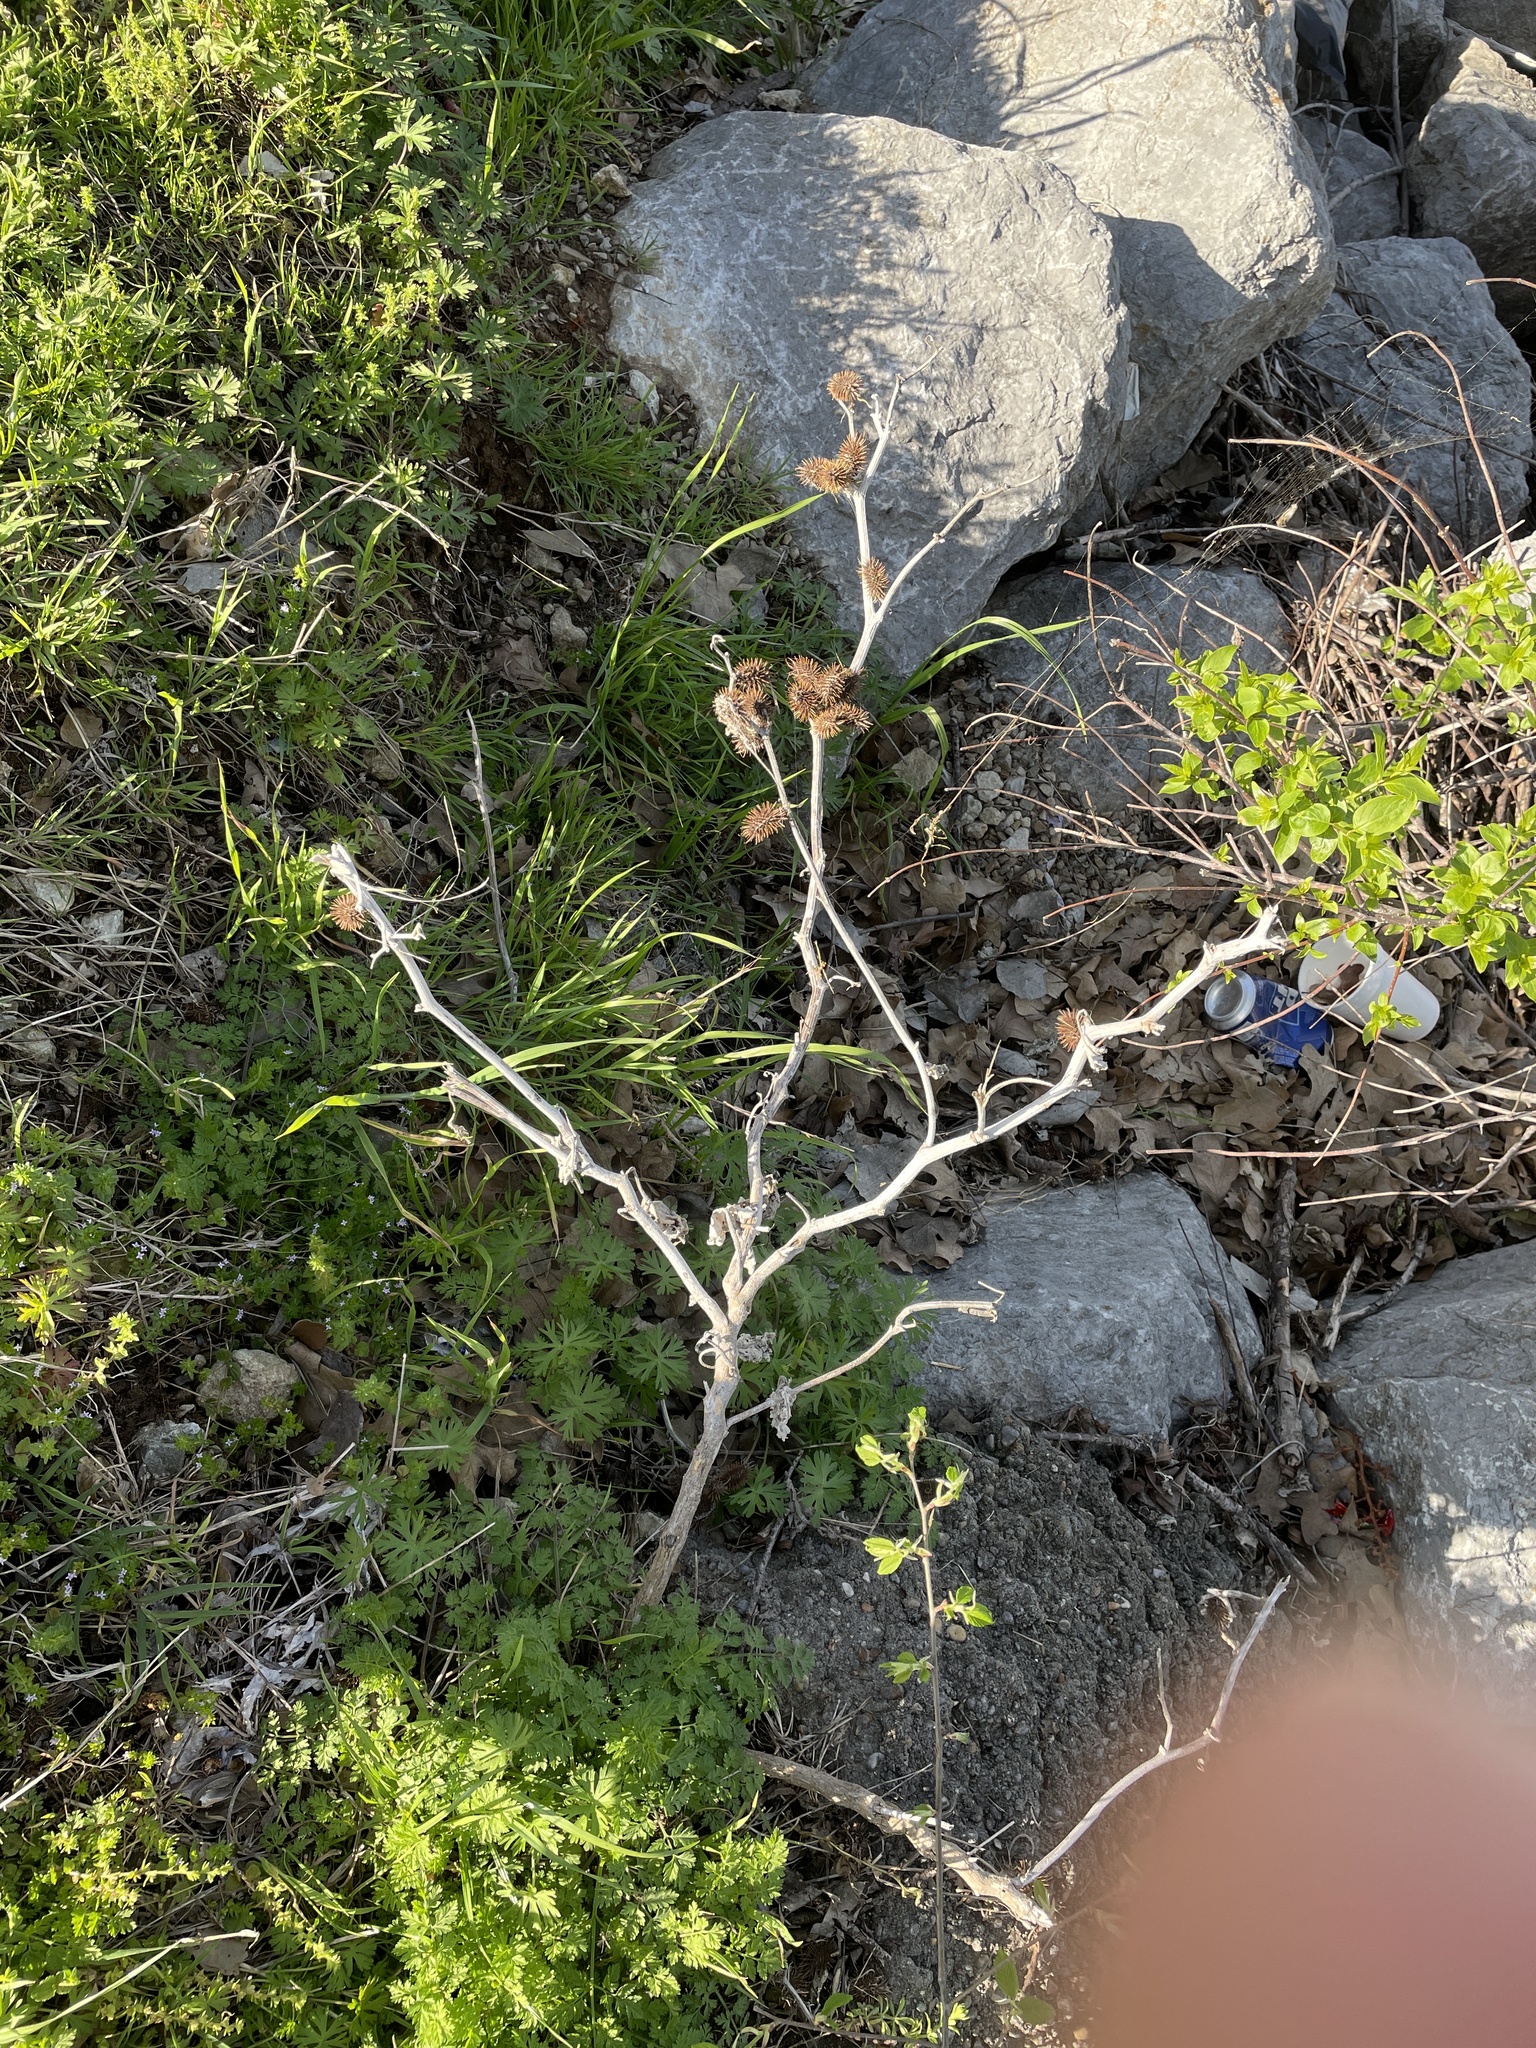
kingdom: Plantae
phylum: Tracheophyta
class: Magnoliopsida
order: Asterales
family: Asteraceae
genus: Xanthium
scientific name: Xanthium strumarium
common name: Rough cocklebur
